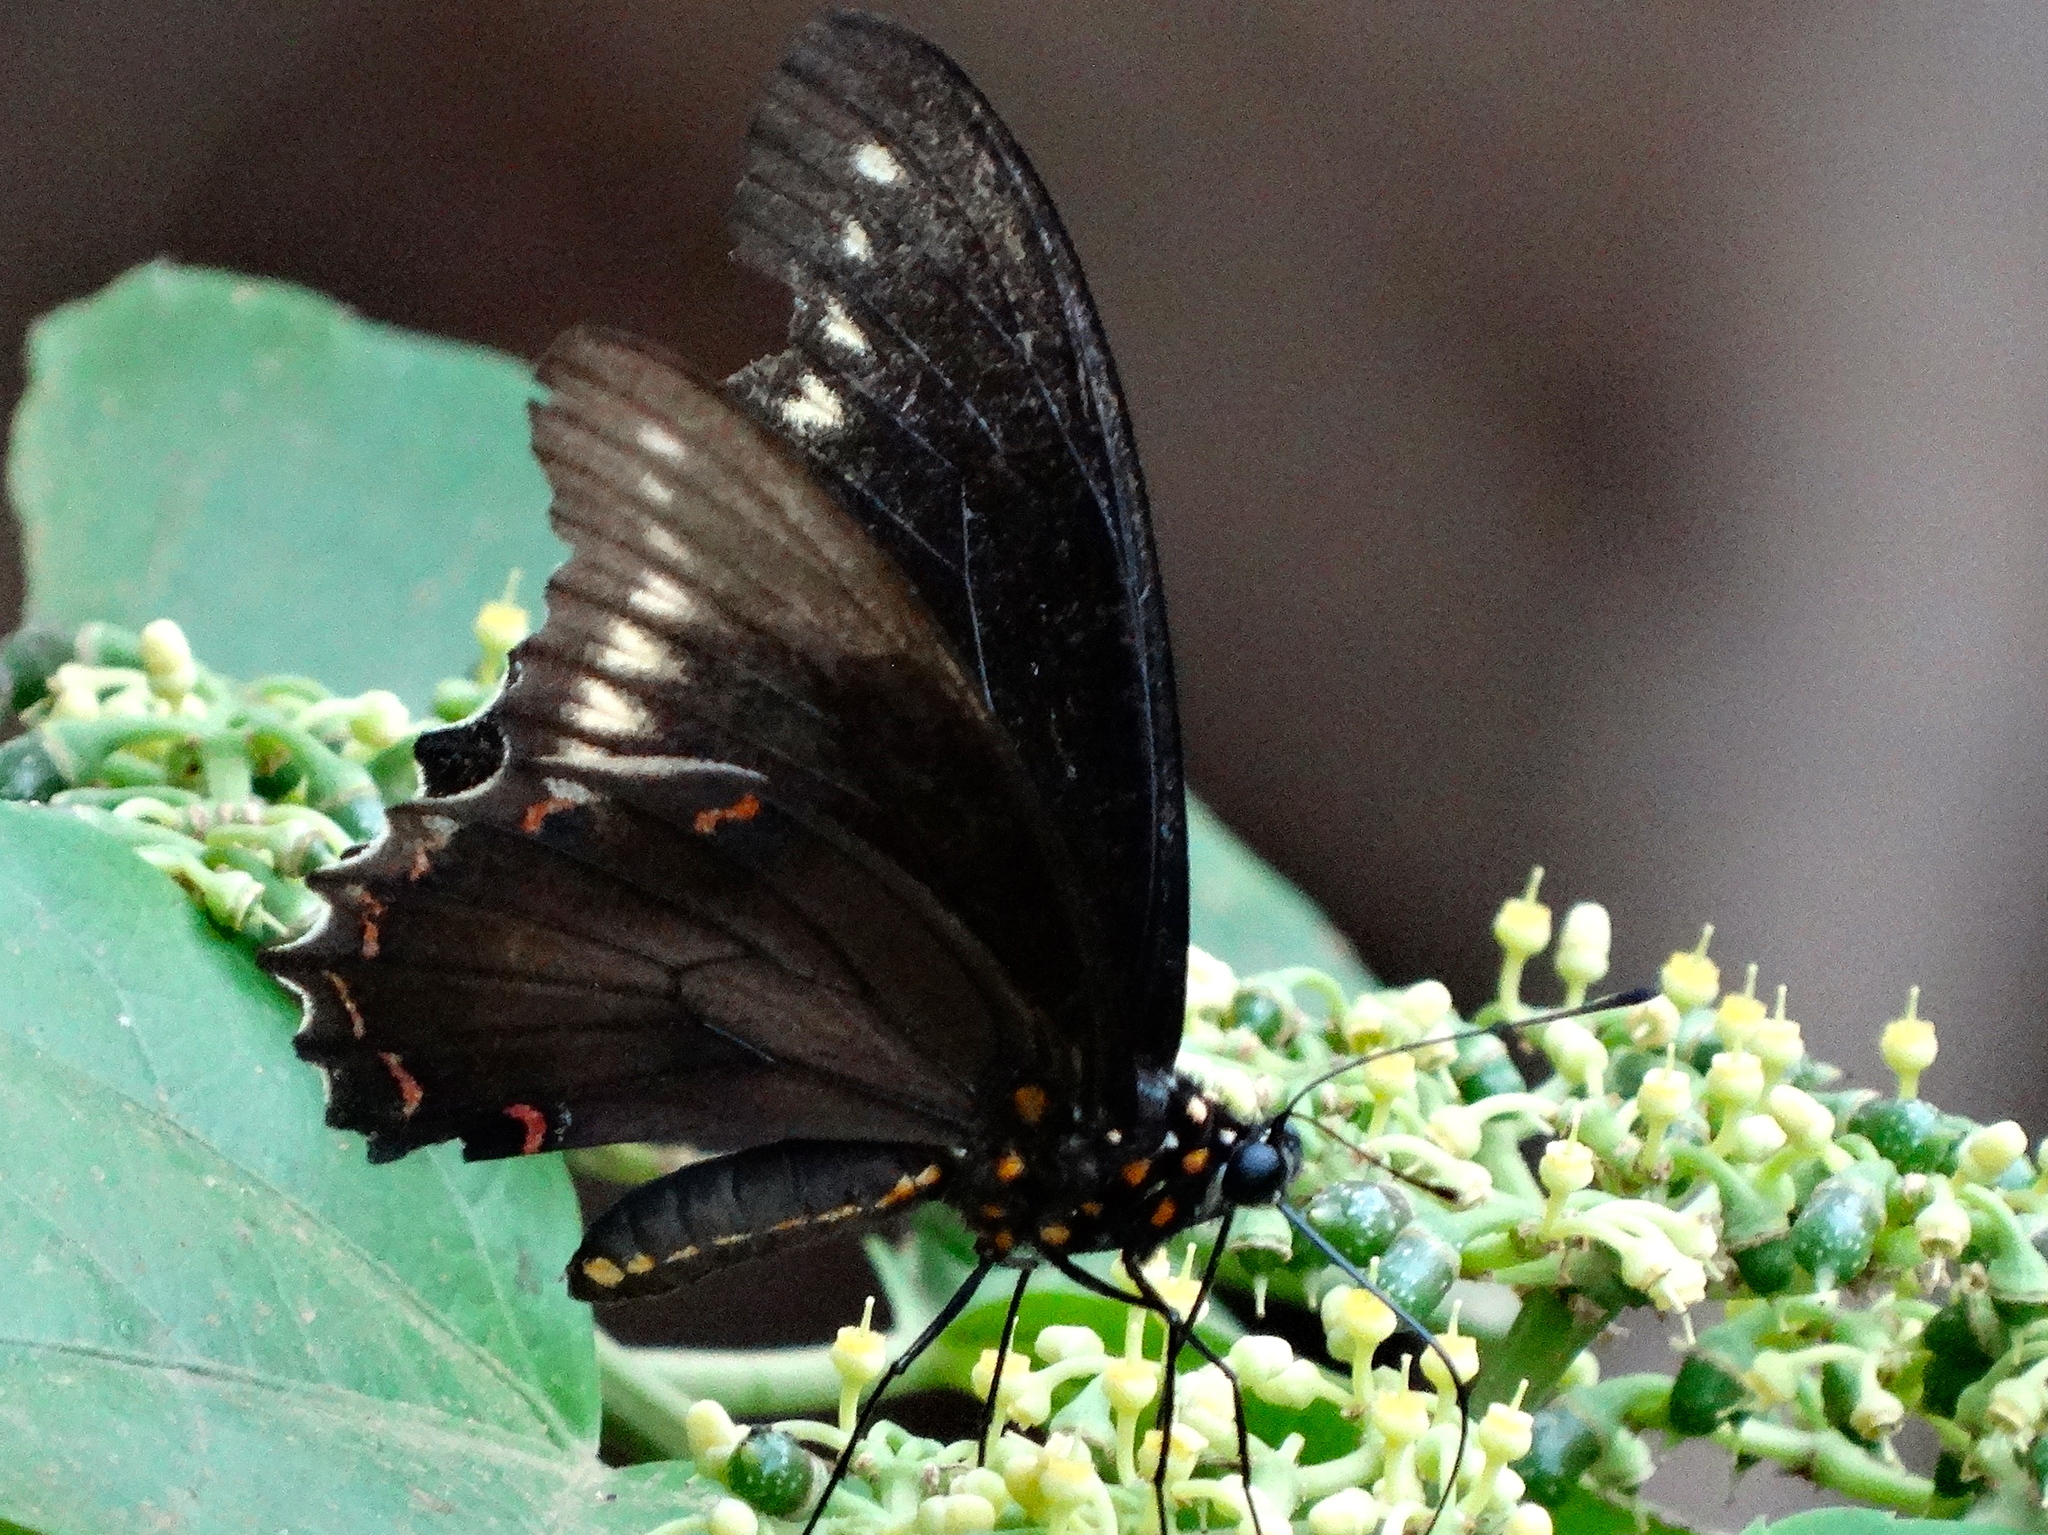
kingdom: Animalia
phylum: Arthropoda
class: Insecta
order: Lepidoptera
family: Papilionidae
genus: Battus
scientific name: Battus polydamas
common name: Polydamas swallowtail
